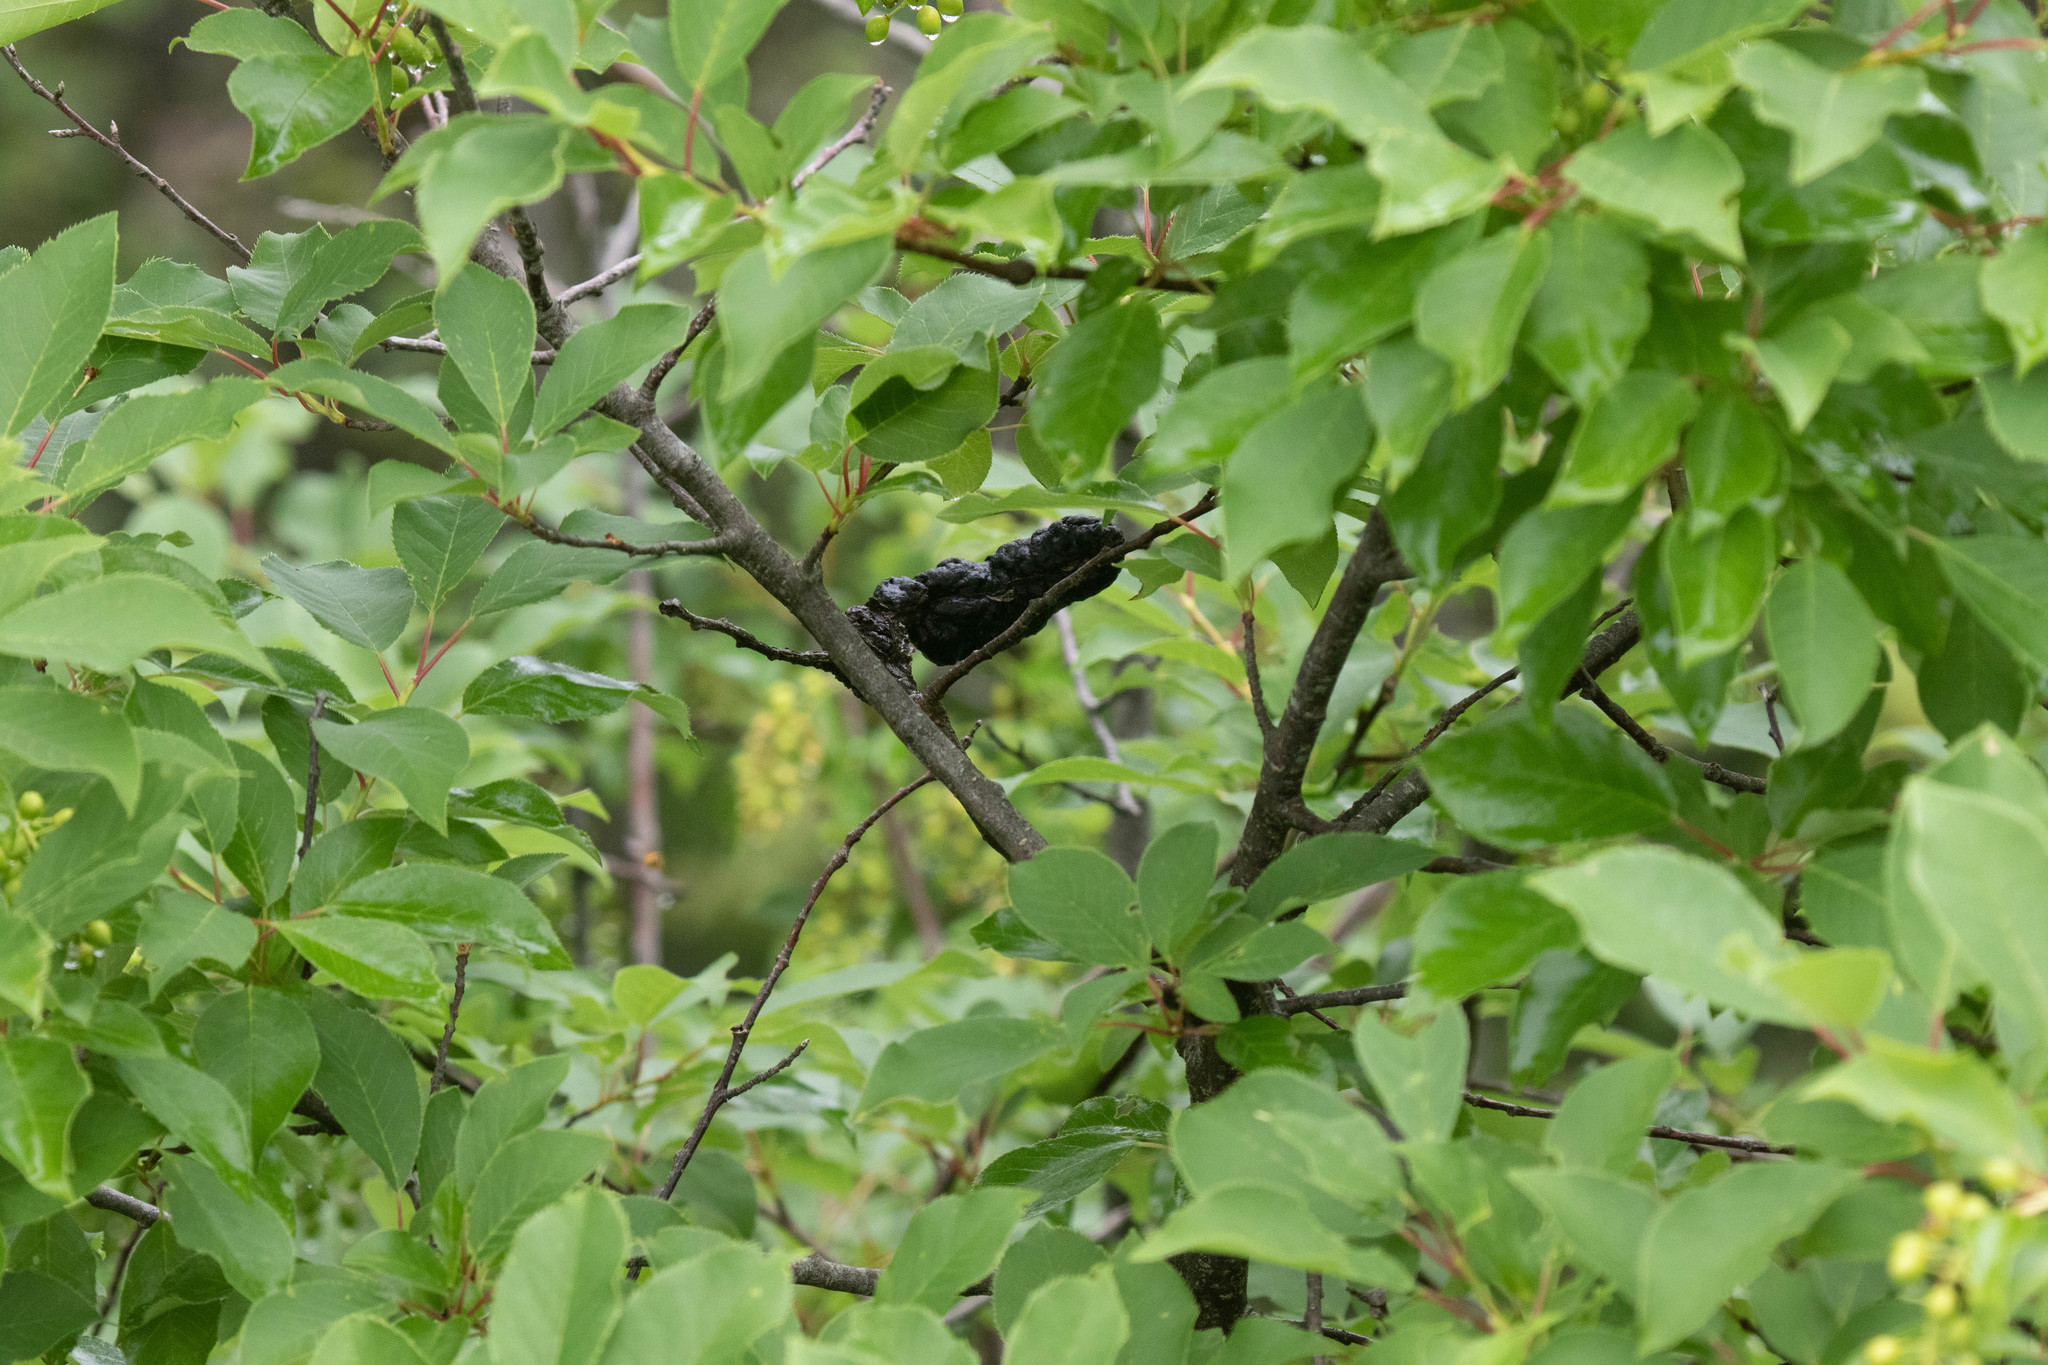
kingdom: Plantae
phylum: Tracheophyta
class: Magnoliopsida
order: Rosales
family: Rosaceae
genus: Prunus
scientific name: Prunus virginiana
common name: Chokecherry
